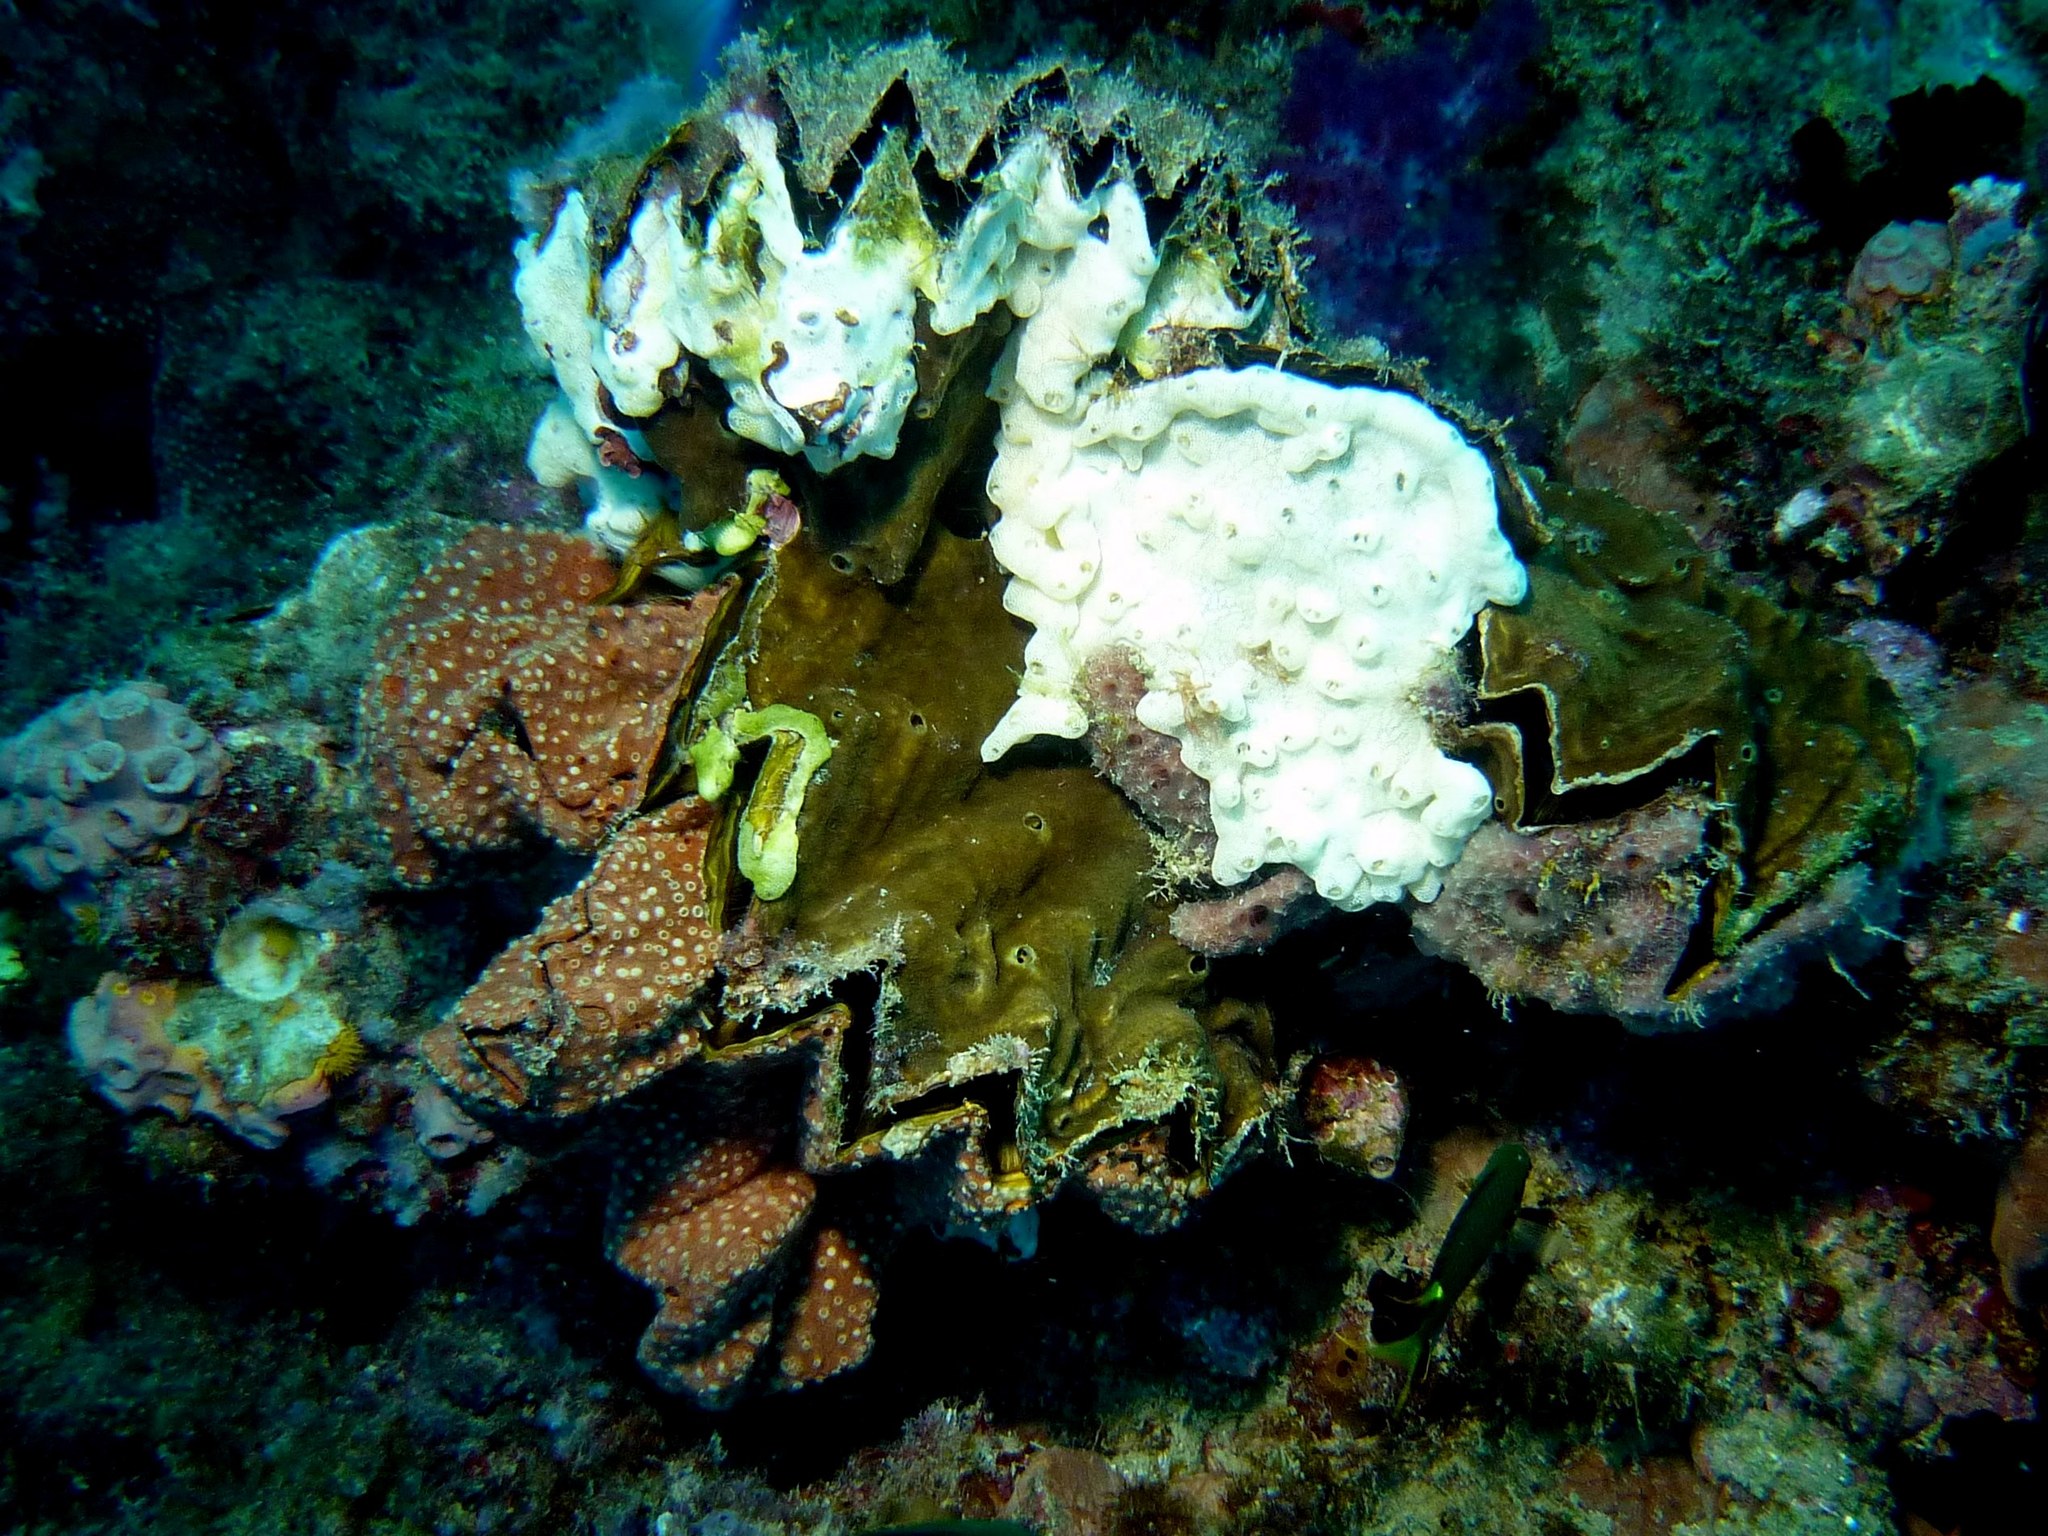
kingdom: Animalia
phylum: Mollusca
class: Bivalvia
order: Ostreida
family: Ostreidae
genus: Lopha
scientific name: Lopha cristagalli
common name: Cock's-comb oyster
